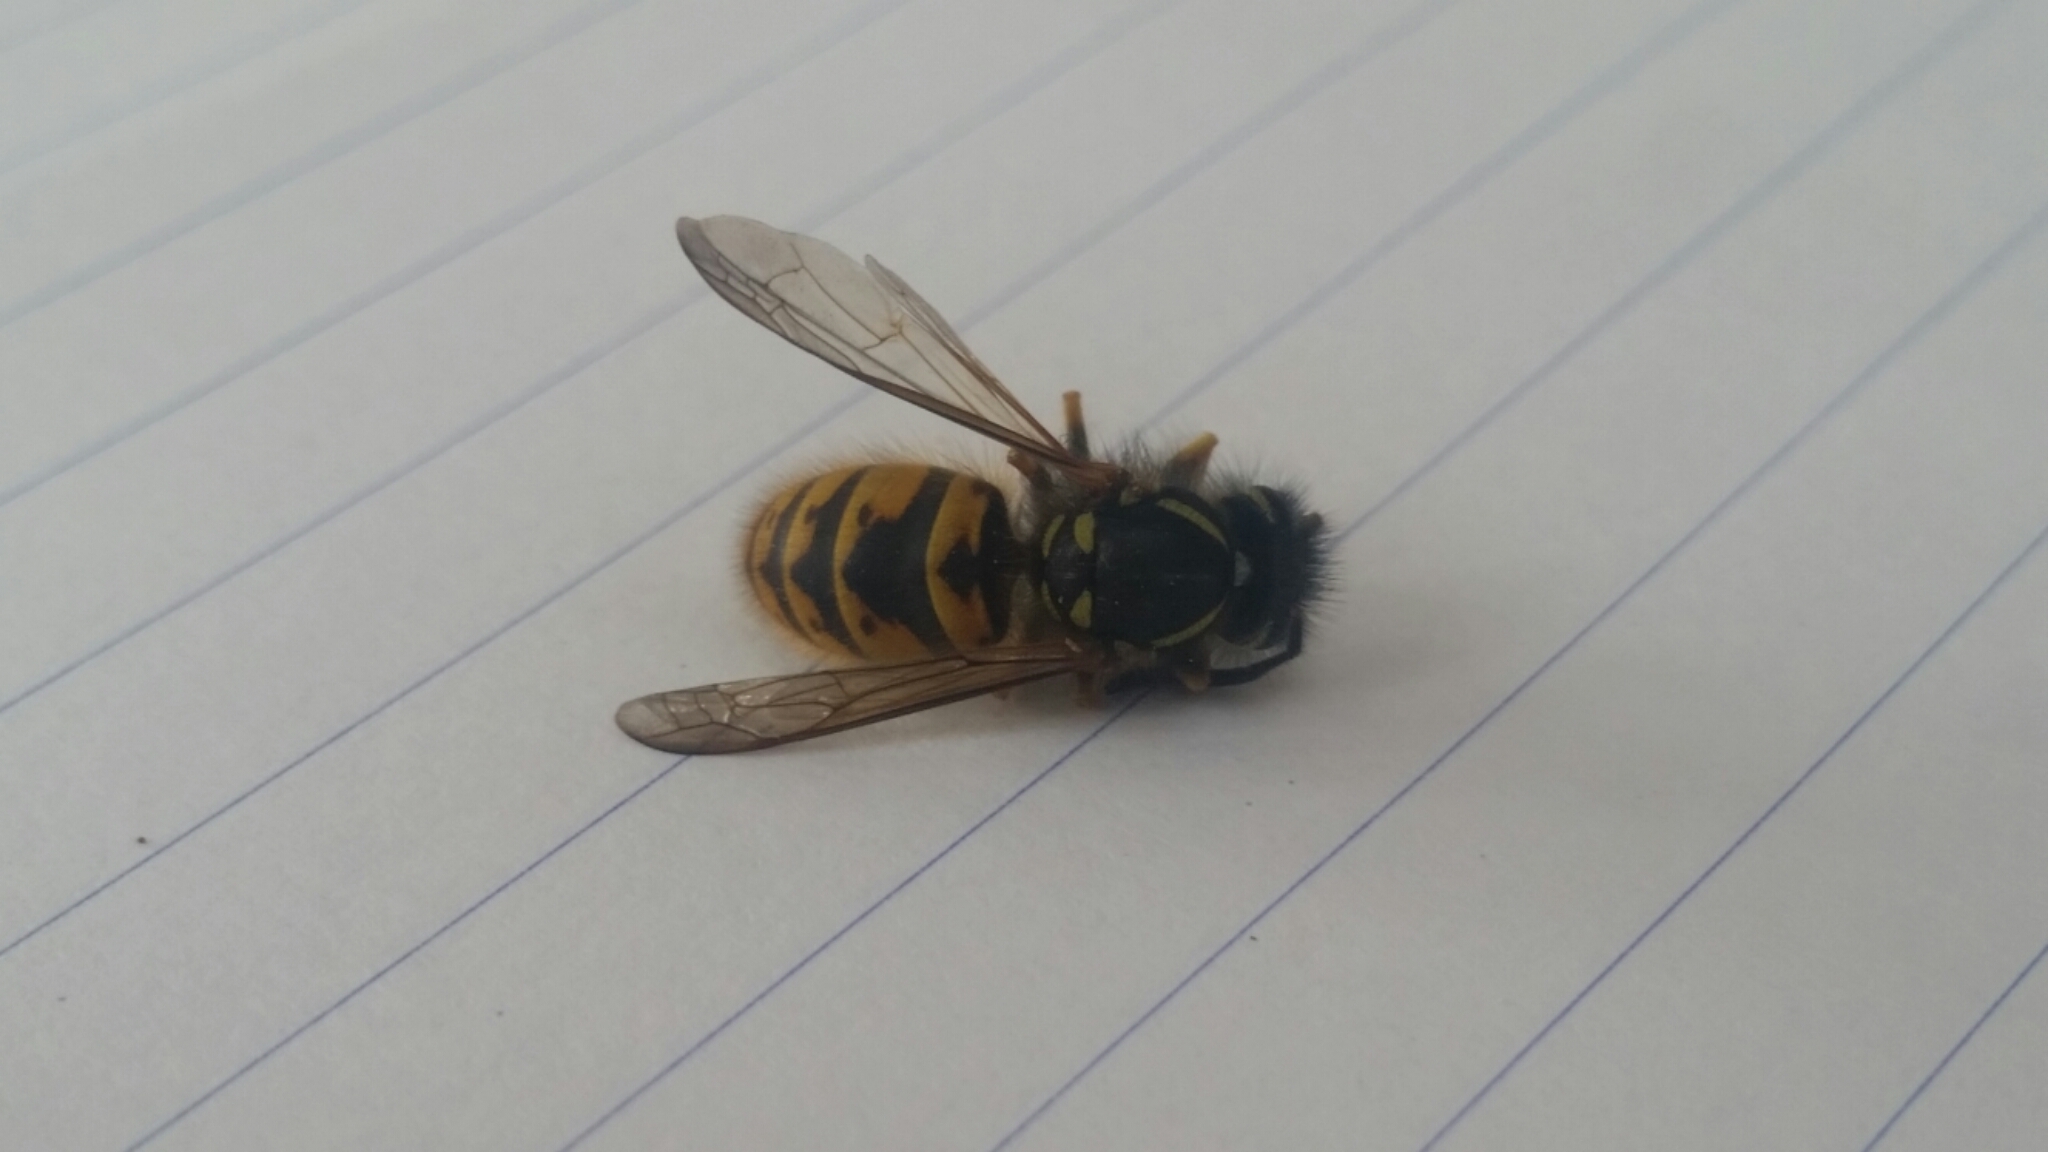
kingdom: Animalia
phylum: Arthropoda
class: Insecta
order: Hymenoptera
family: Vespidae
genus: Vespula
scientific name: Vespula vulgaris
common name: Common wasp
